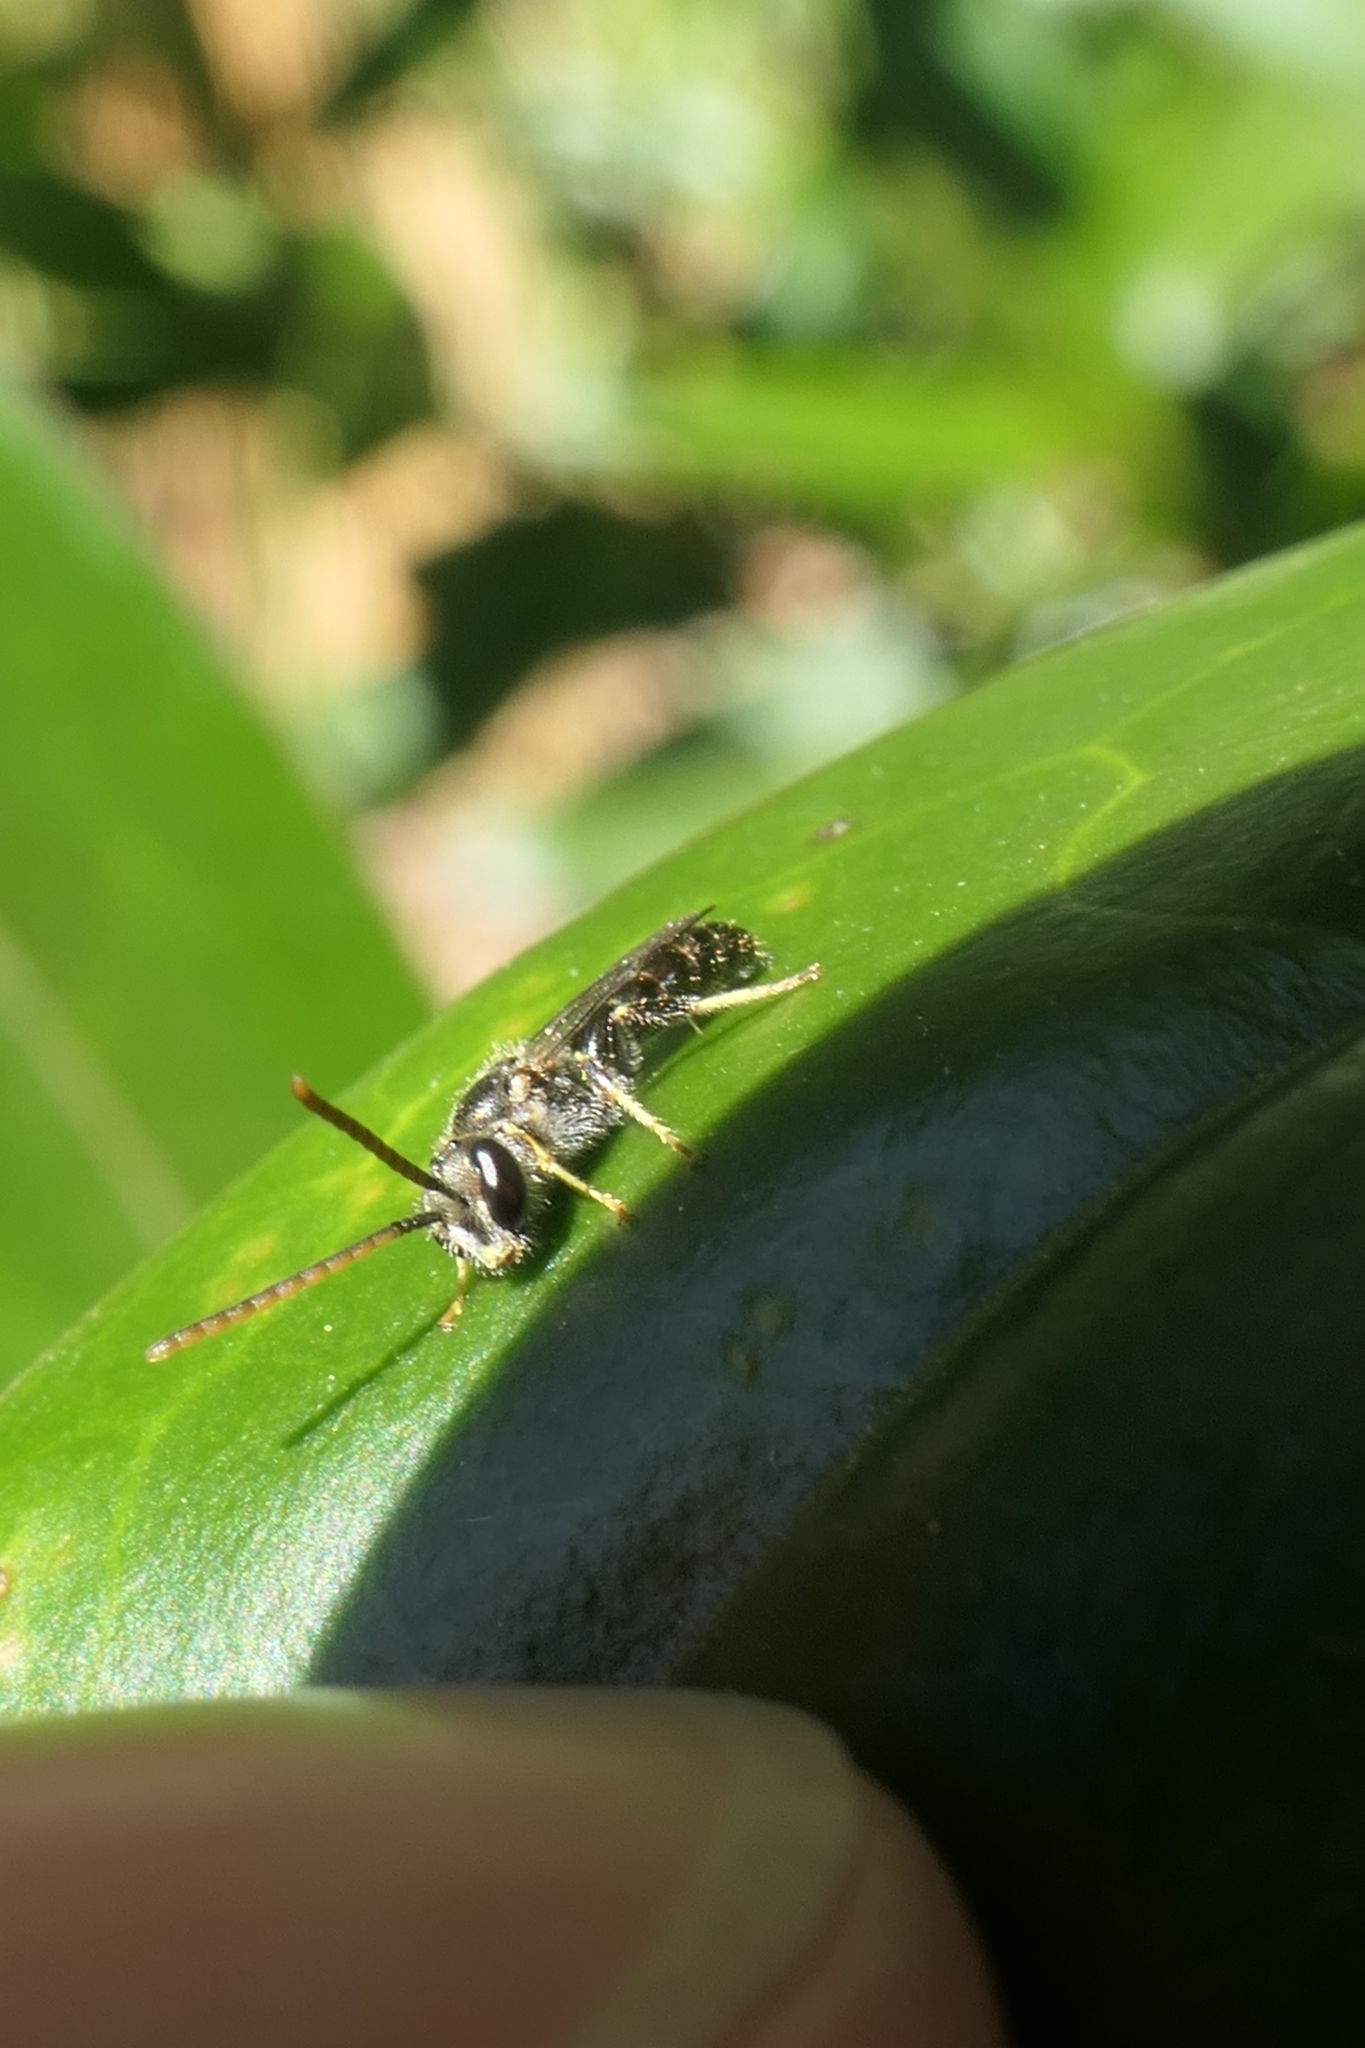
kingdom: Animalia
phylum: Arthropoda
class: Insecta
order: Hymenoptera
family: Halictidae
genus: Lasioglossum
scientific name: Lasioglossum sordidum
